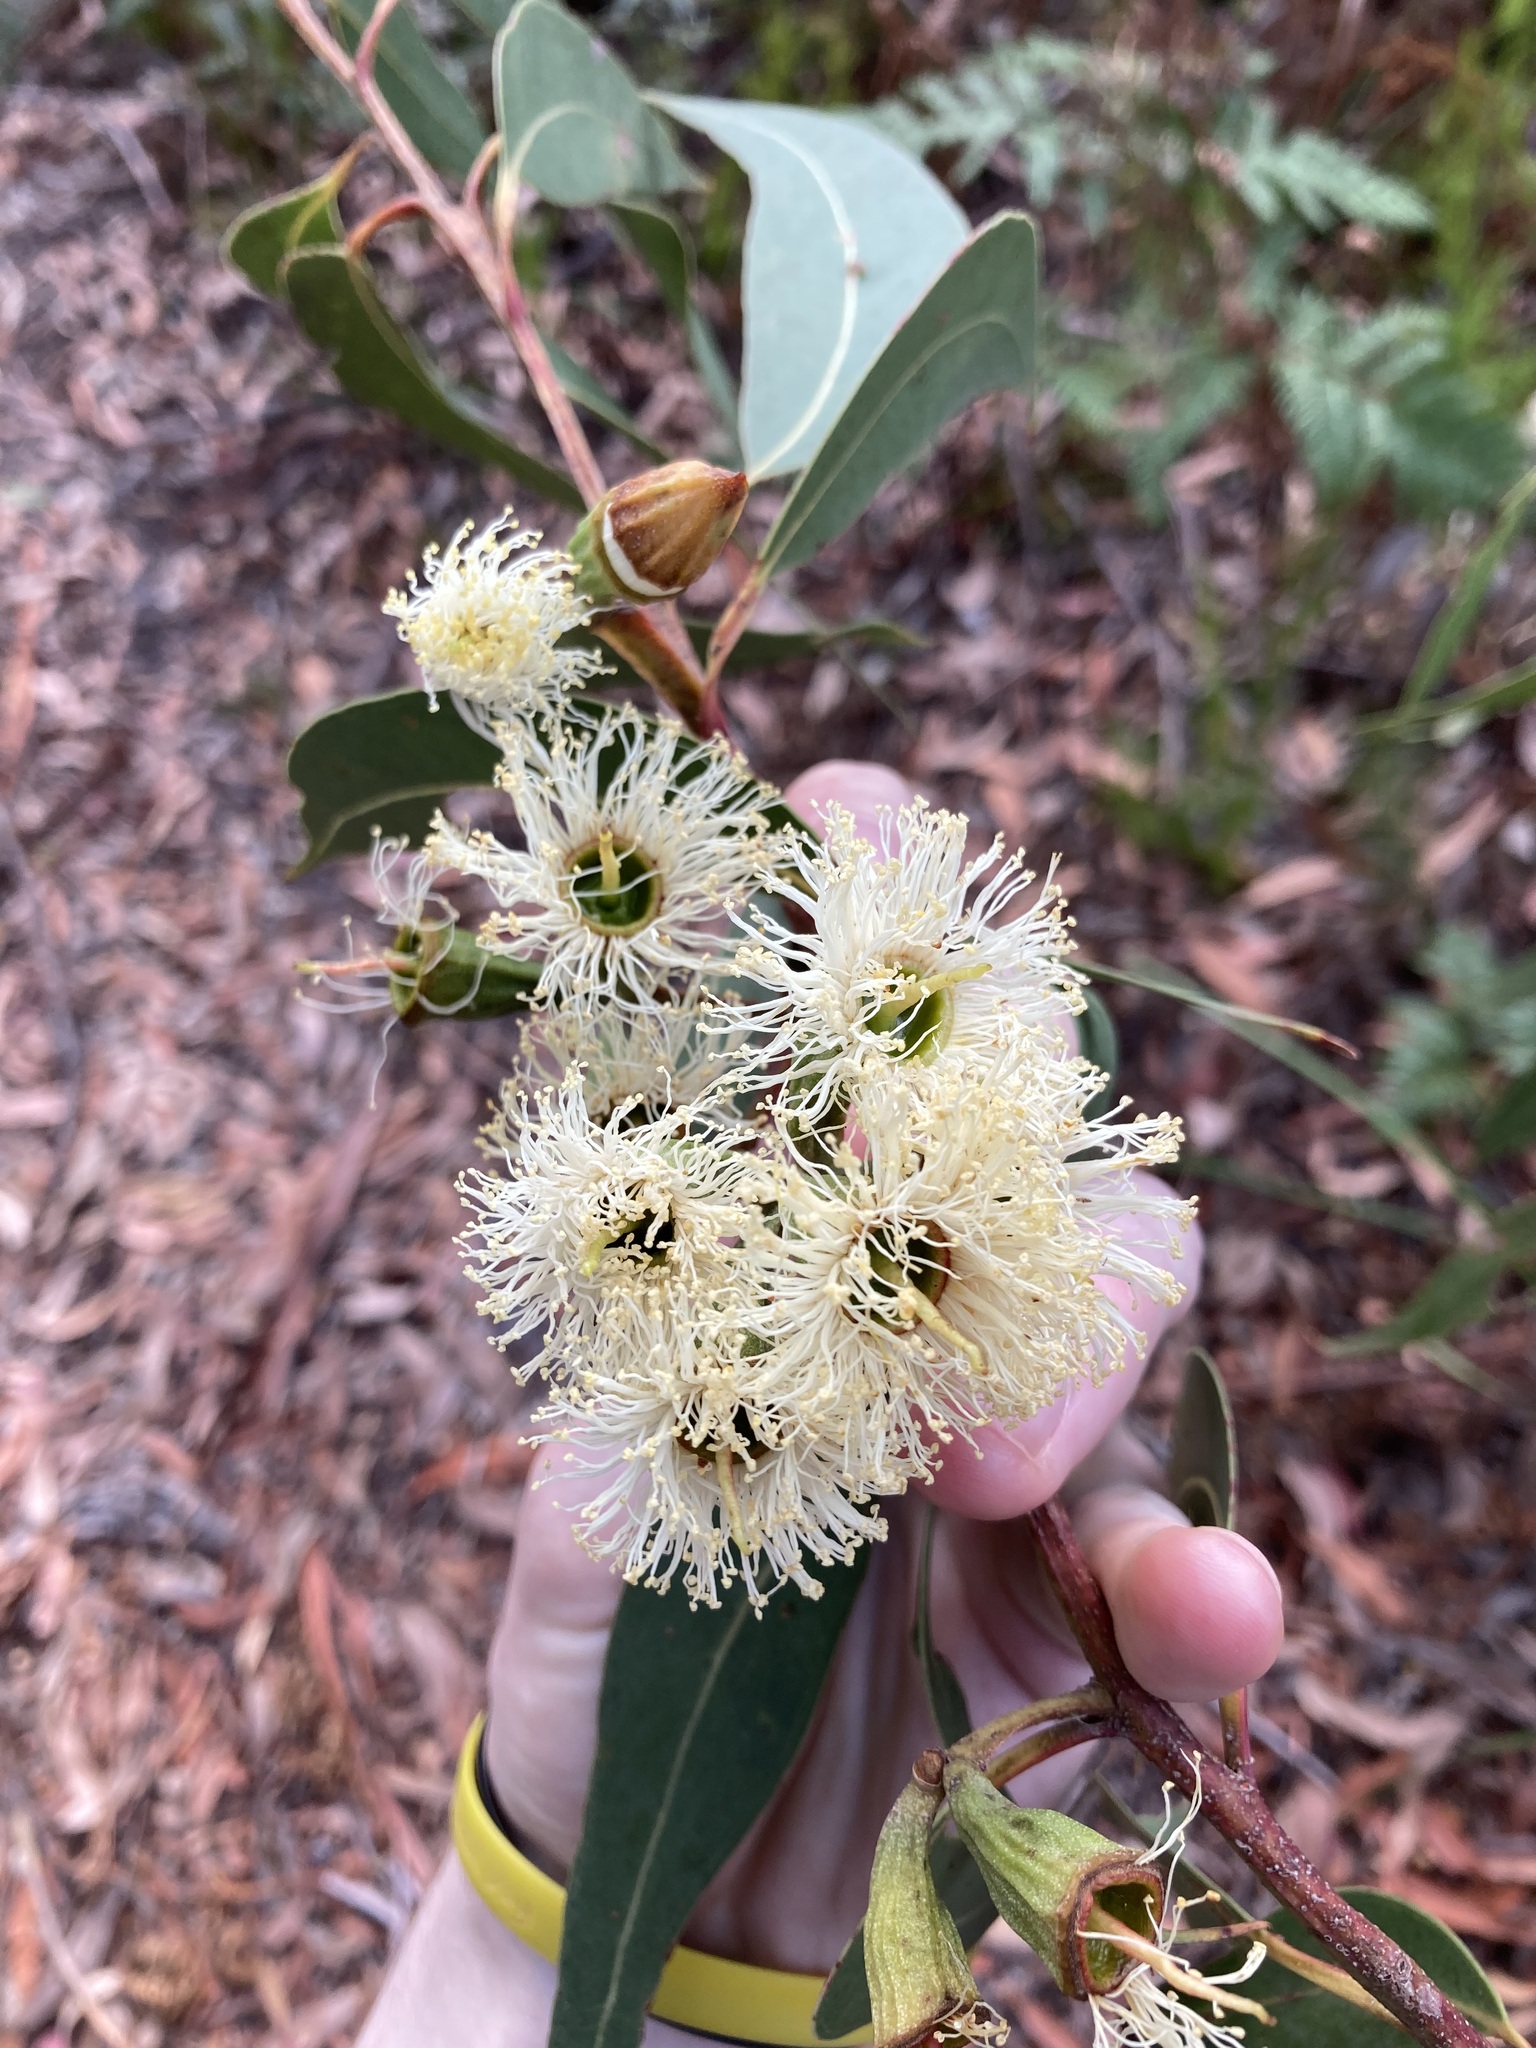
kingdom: Plantae
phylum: Tracheophyta
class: Magnoliopsida
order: Myrtales
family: Myrtaceae
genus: Eucalyptus
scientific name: Eucalyptus planchoniana
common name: Bastard-tallow-wood
